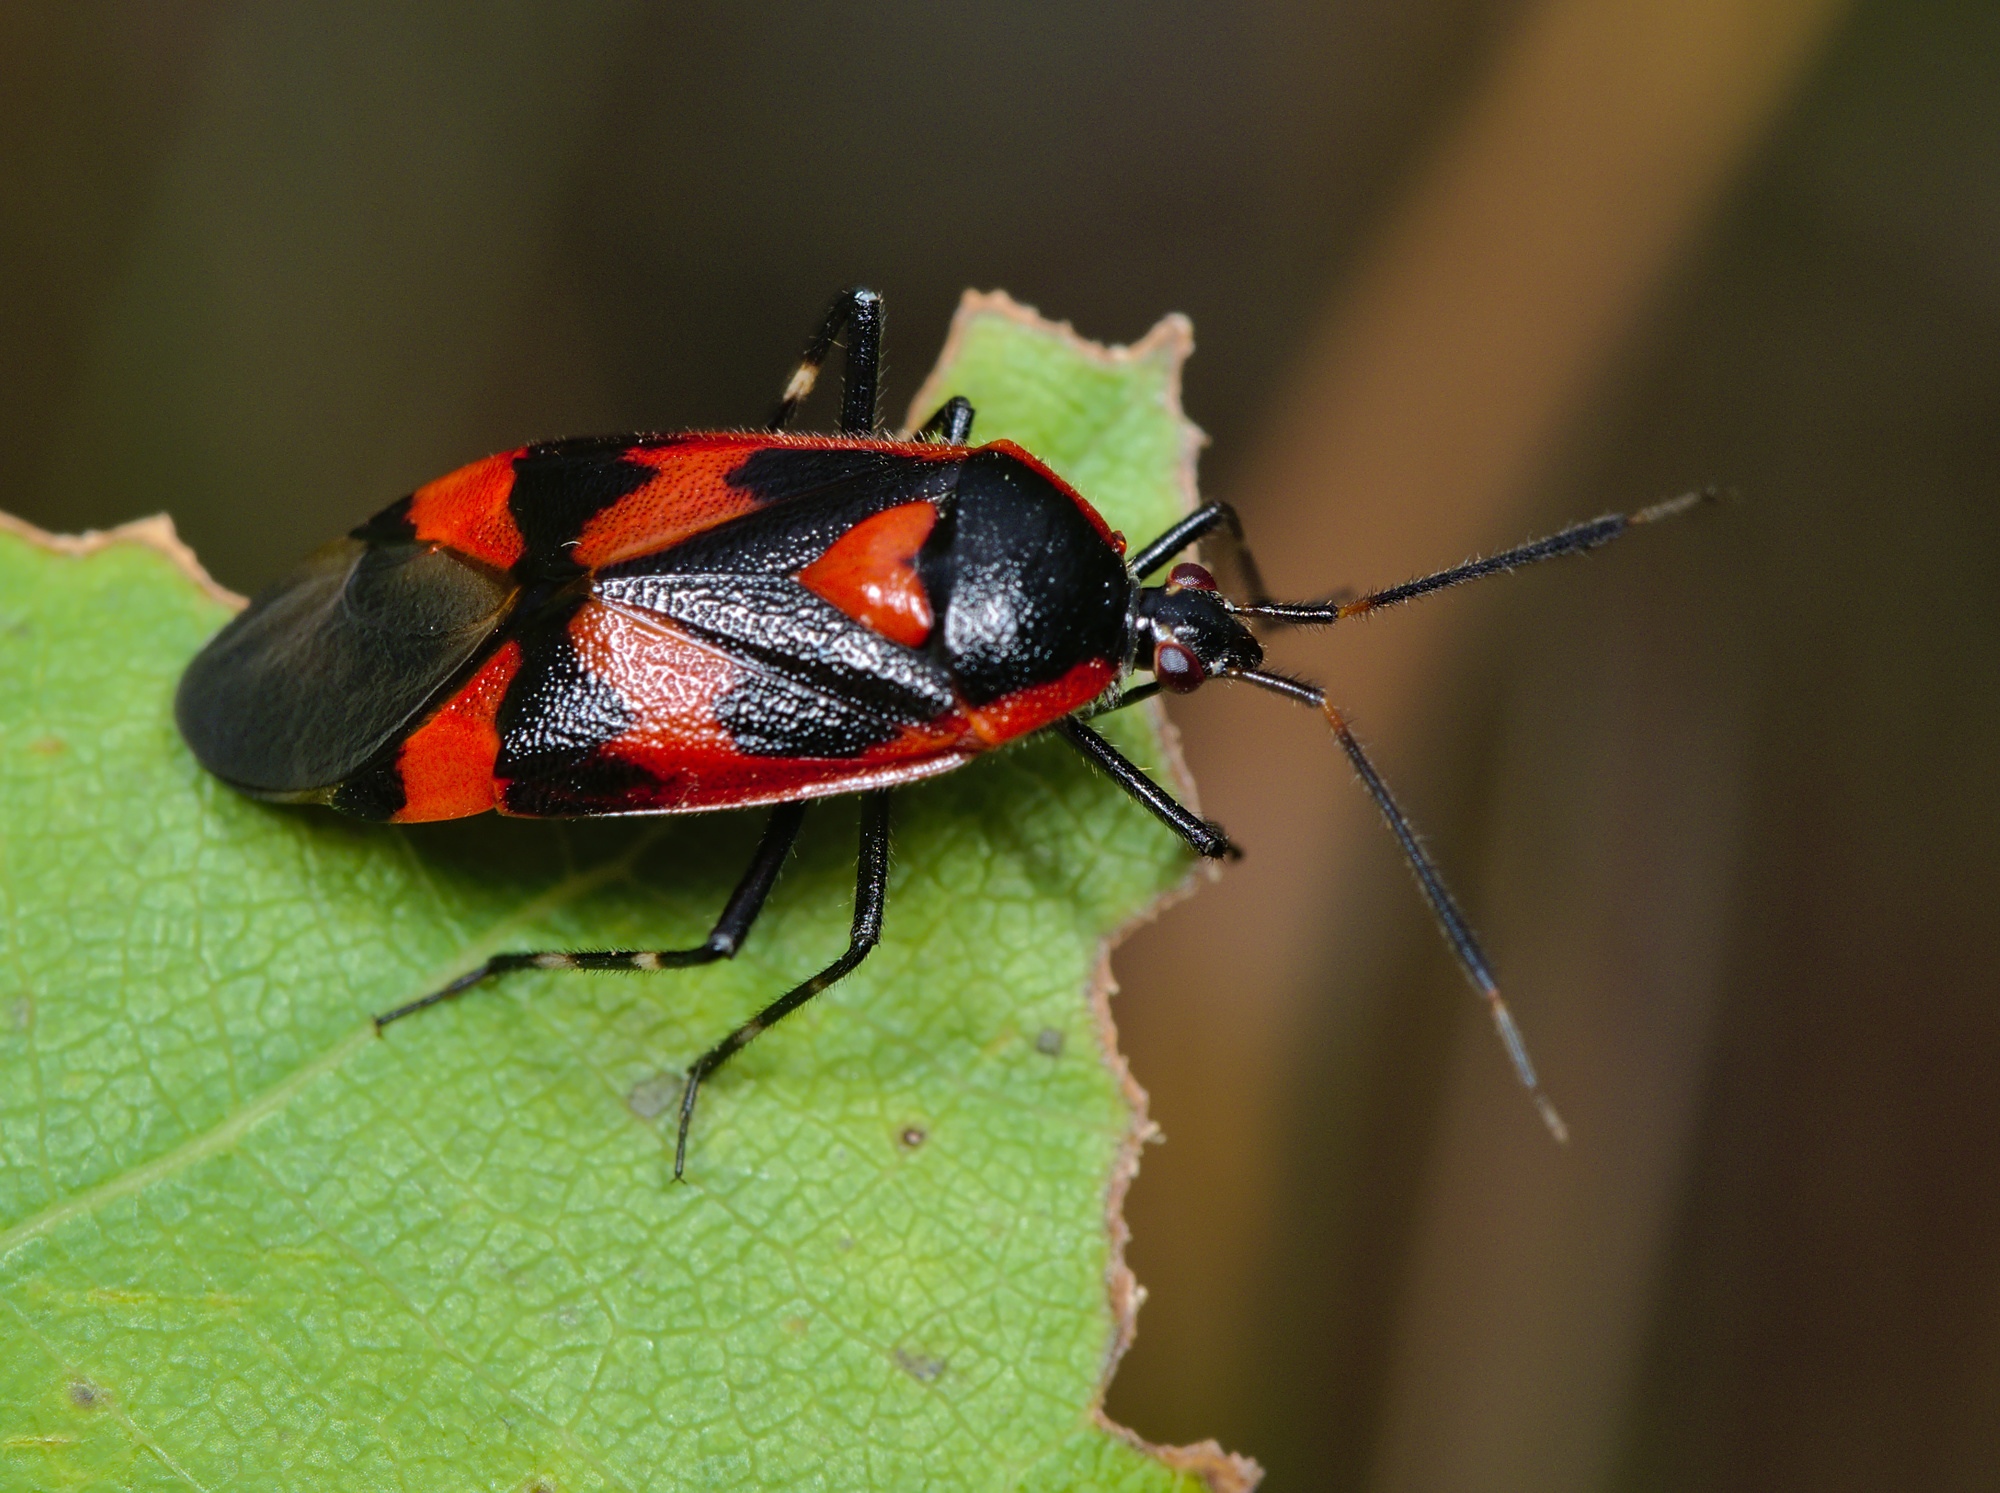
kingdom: Animalia
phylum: Arthropoda
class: Insecta
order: Hemiptera
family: Miridae
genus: Deraeocoris
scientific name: Deraeocoris trifasciatus
